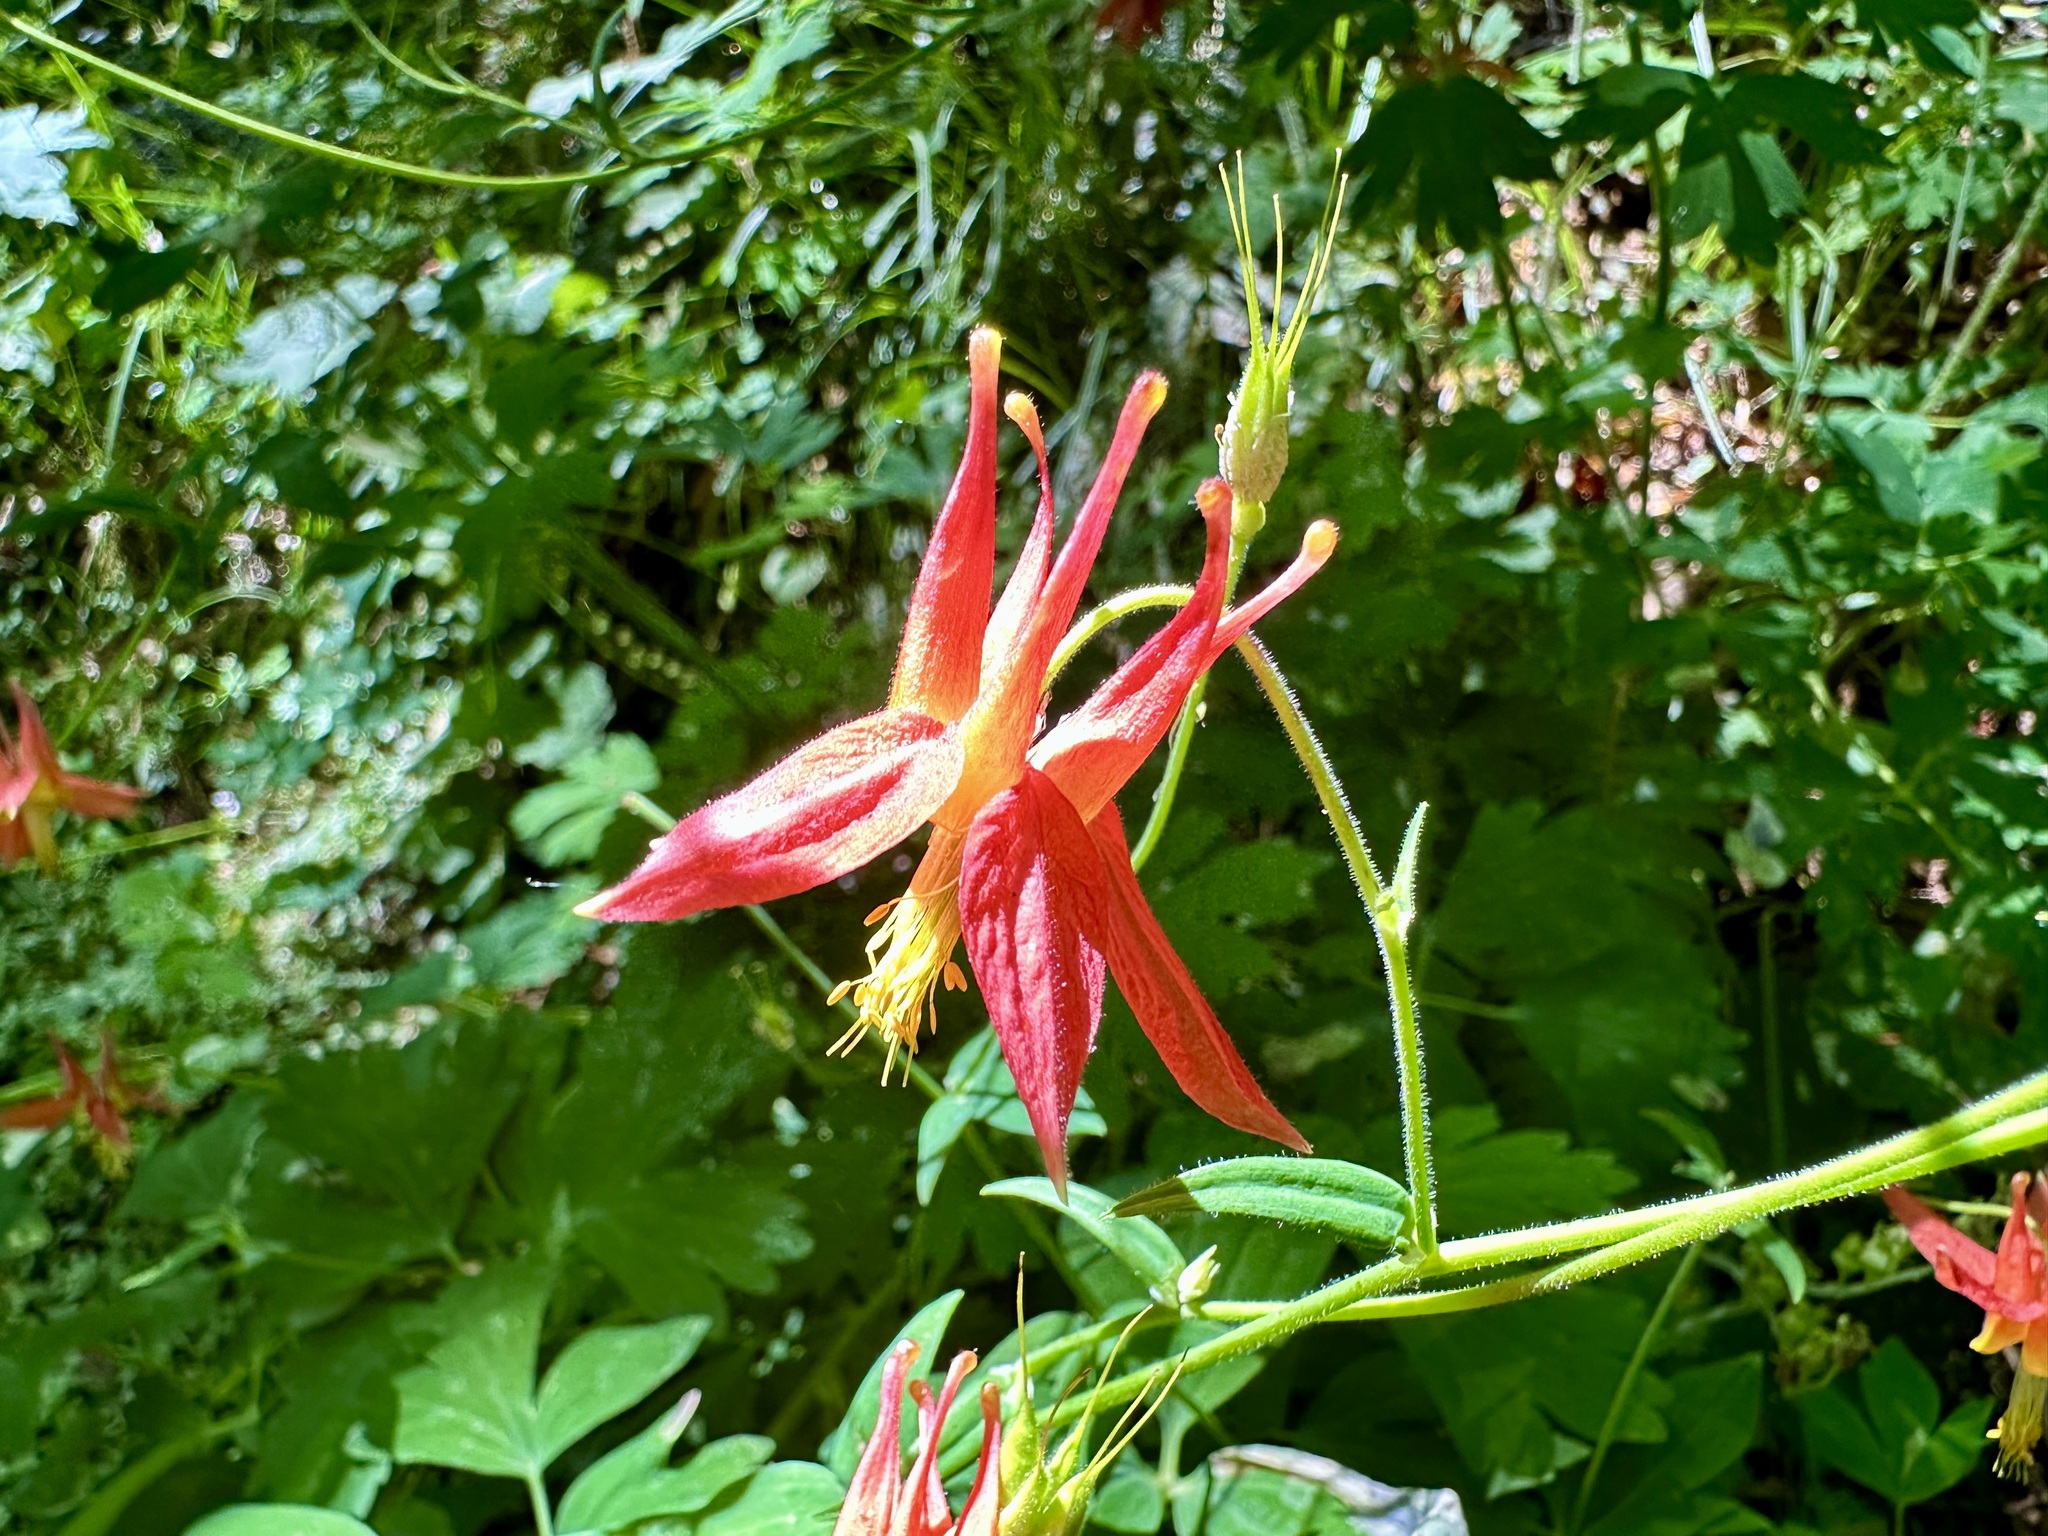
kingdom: Plantae
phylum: Tracheophyta
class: Magnoliopsida
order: Ranunculales
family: Ranunculaceae
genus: Aquilegia
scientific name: Aquilegia formosa
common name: Sitka columbine
